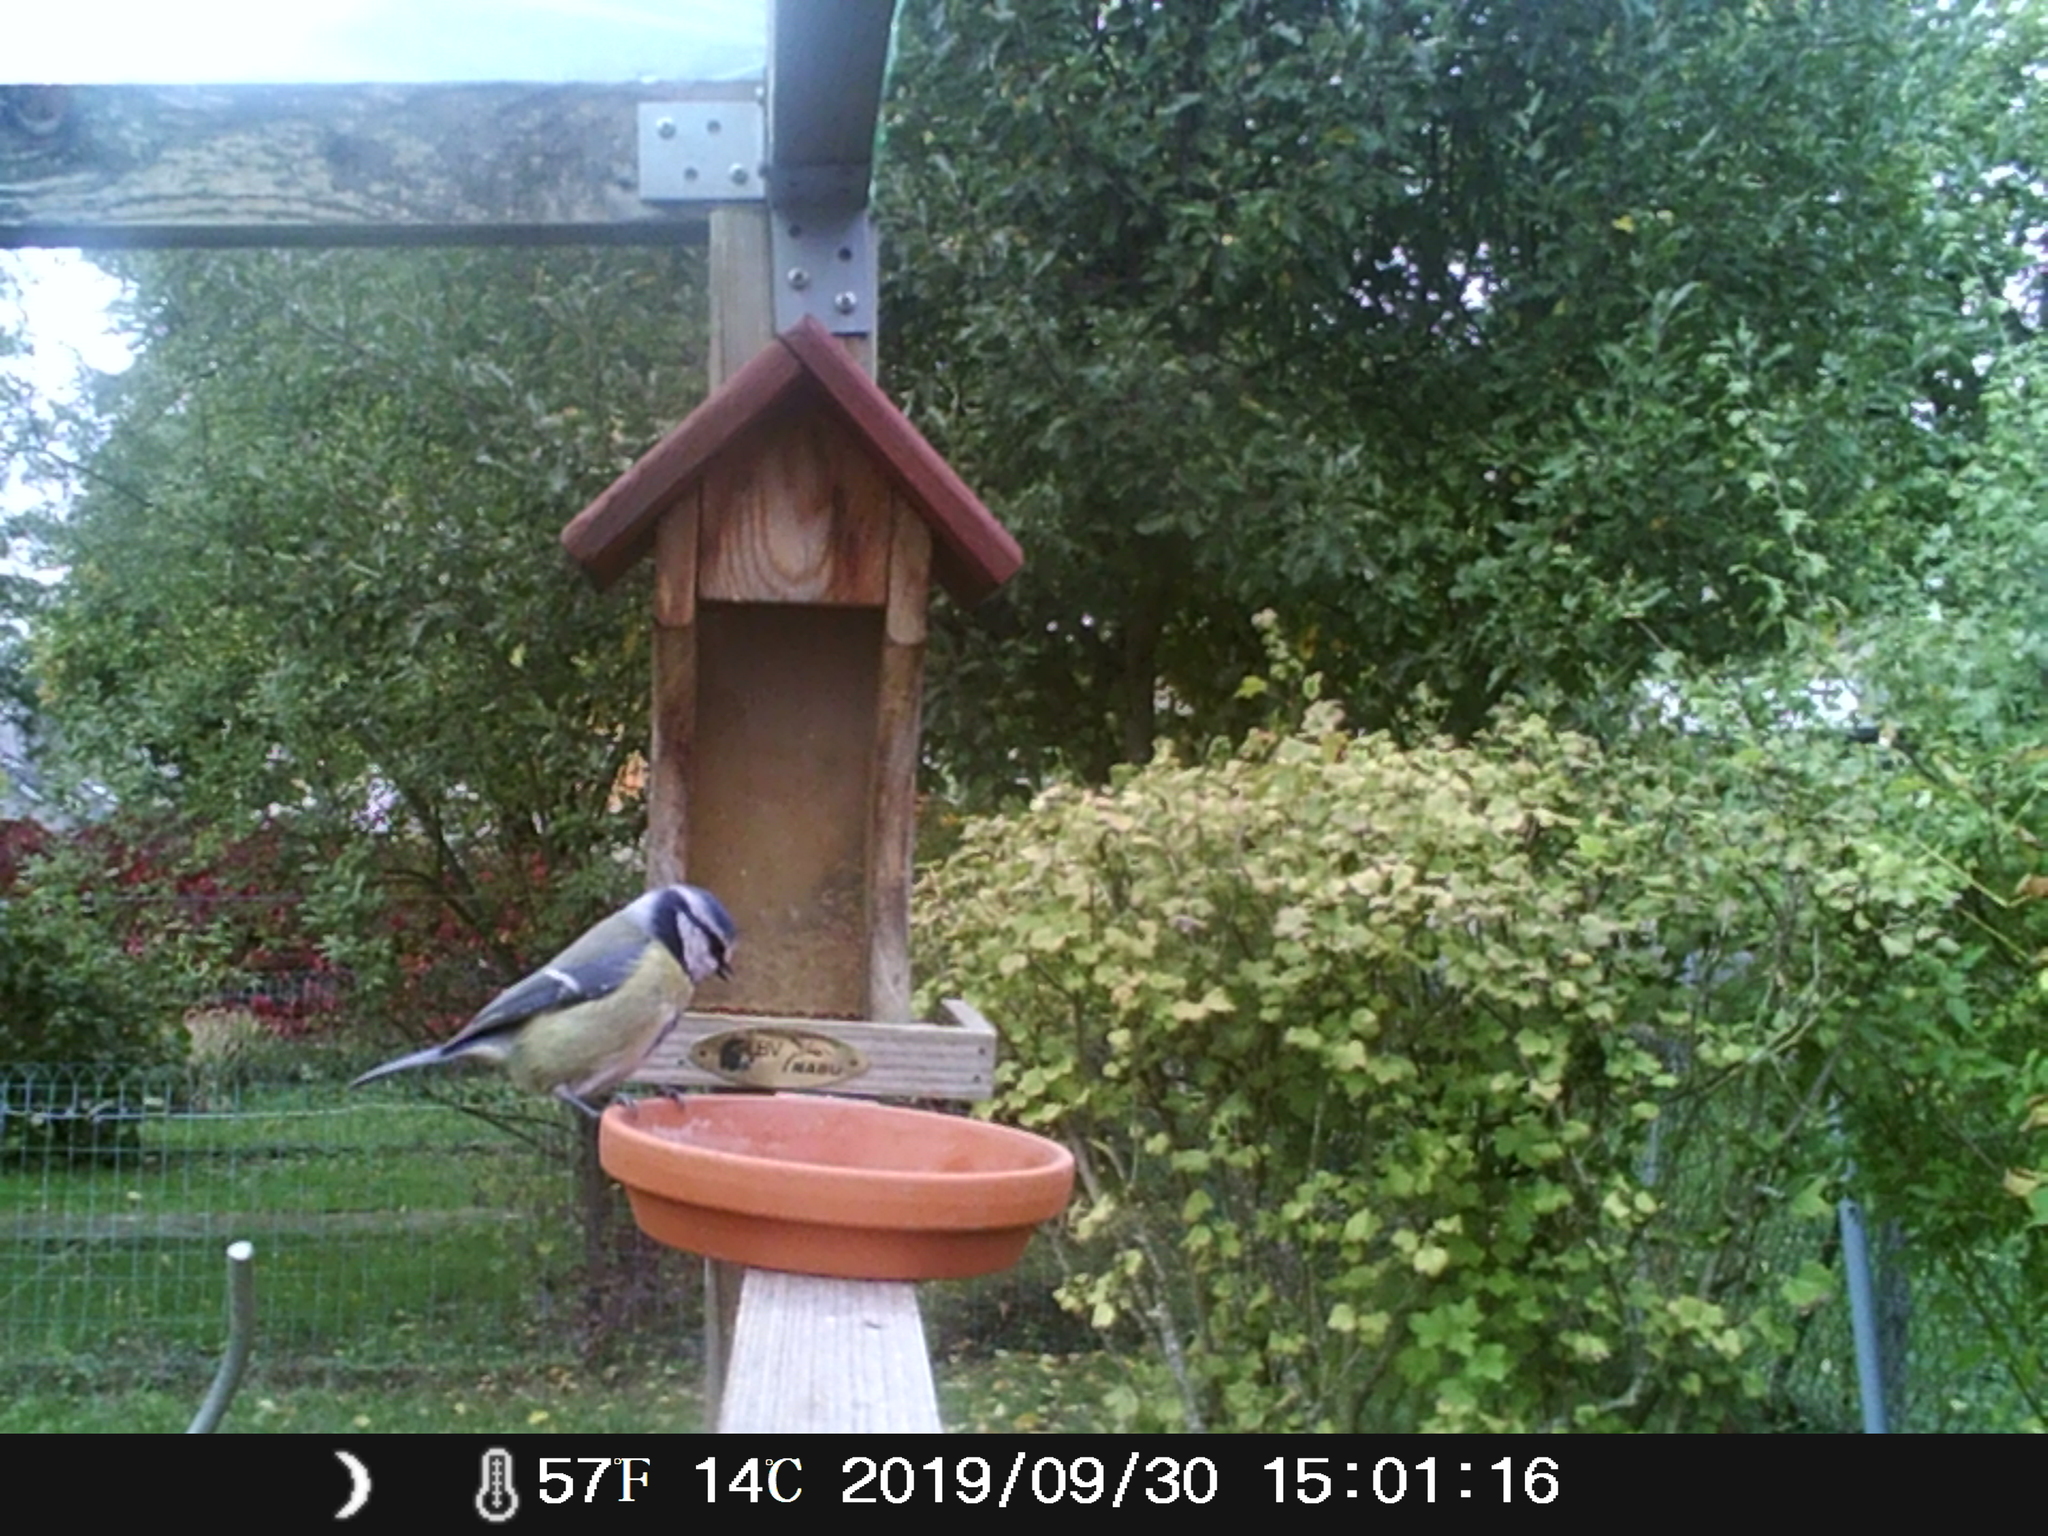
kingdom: Animalia
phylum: Chordata
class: Aves
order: Passeriformes
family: Paridae
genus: Cyanistes
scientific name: Cyanistes caeruleus
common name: Eurasian blue tit
